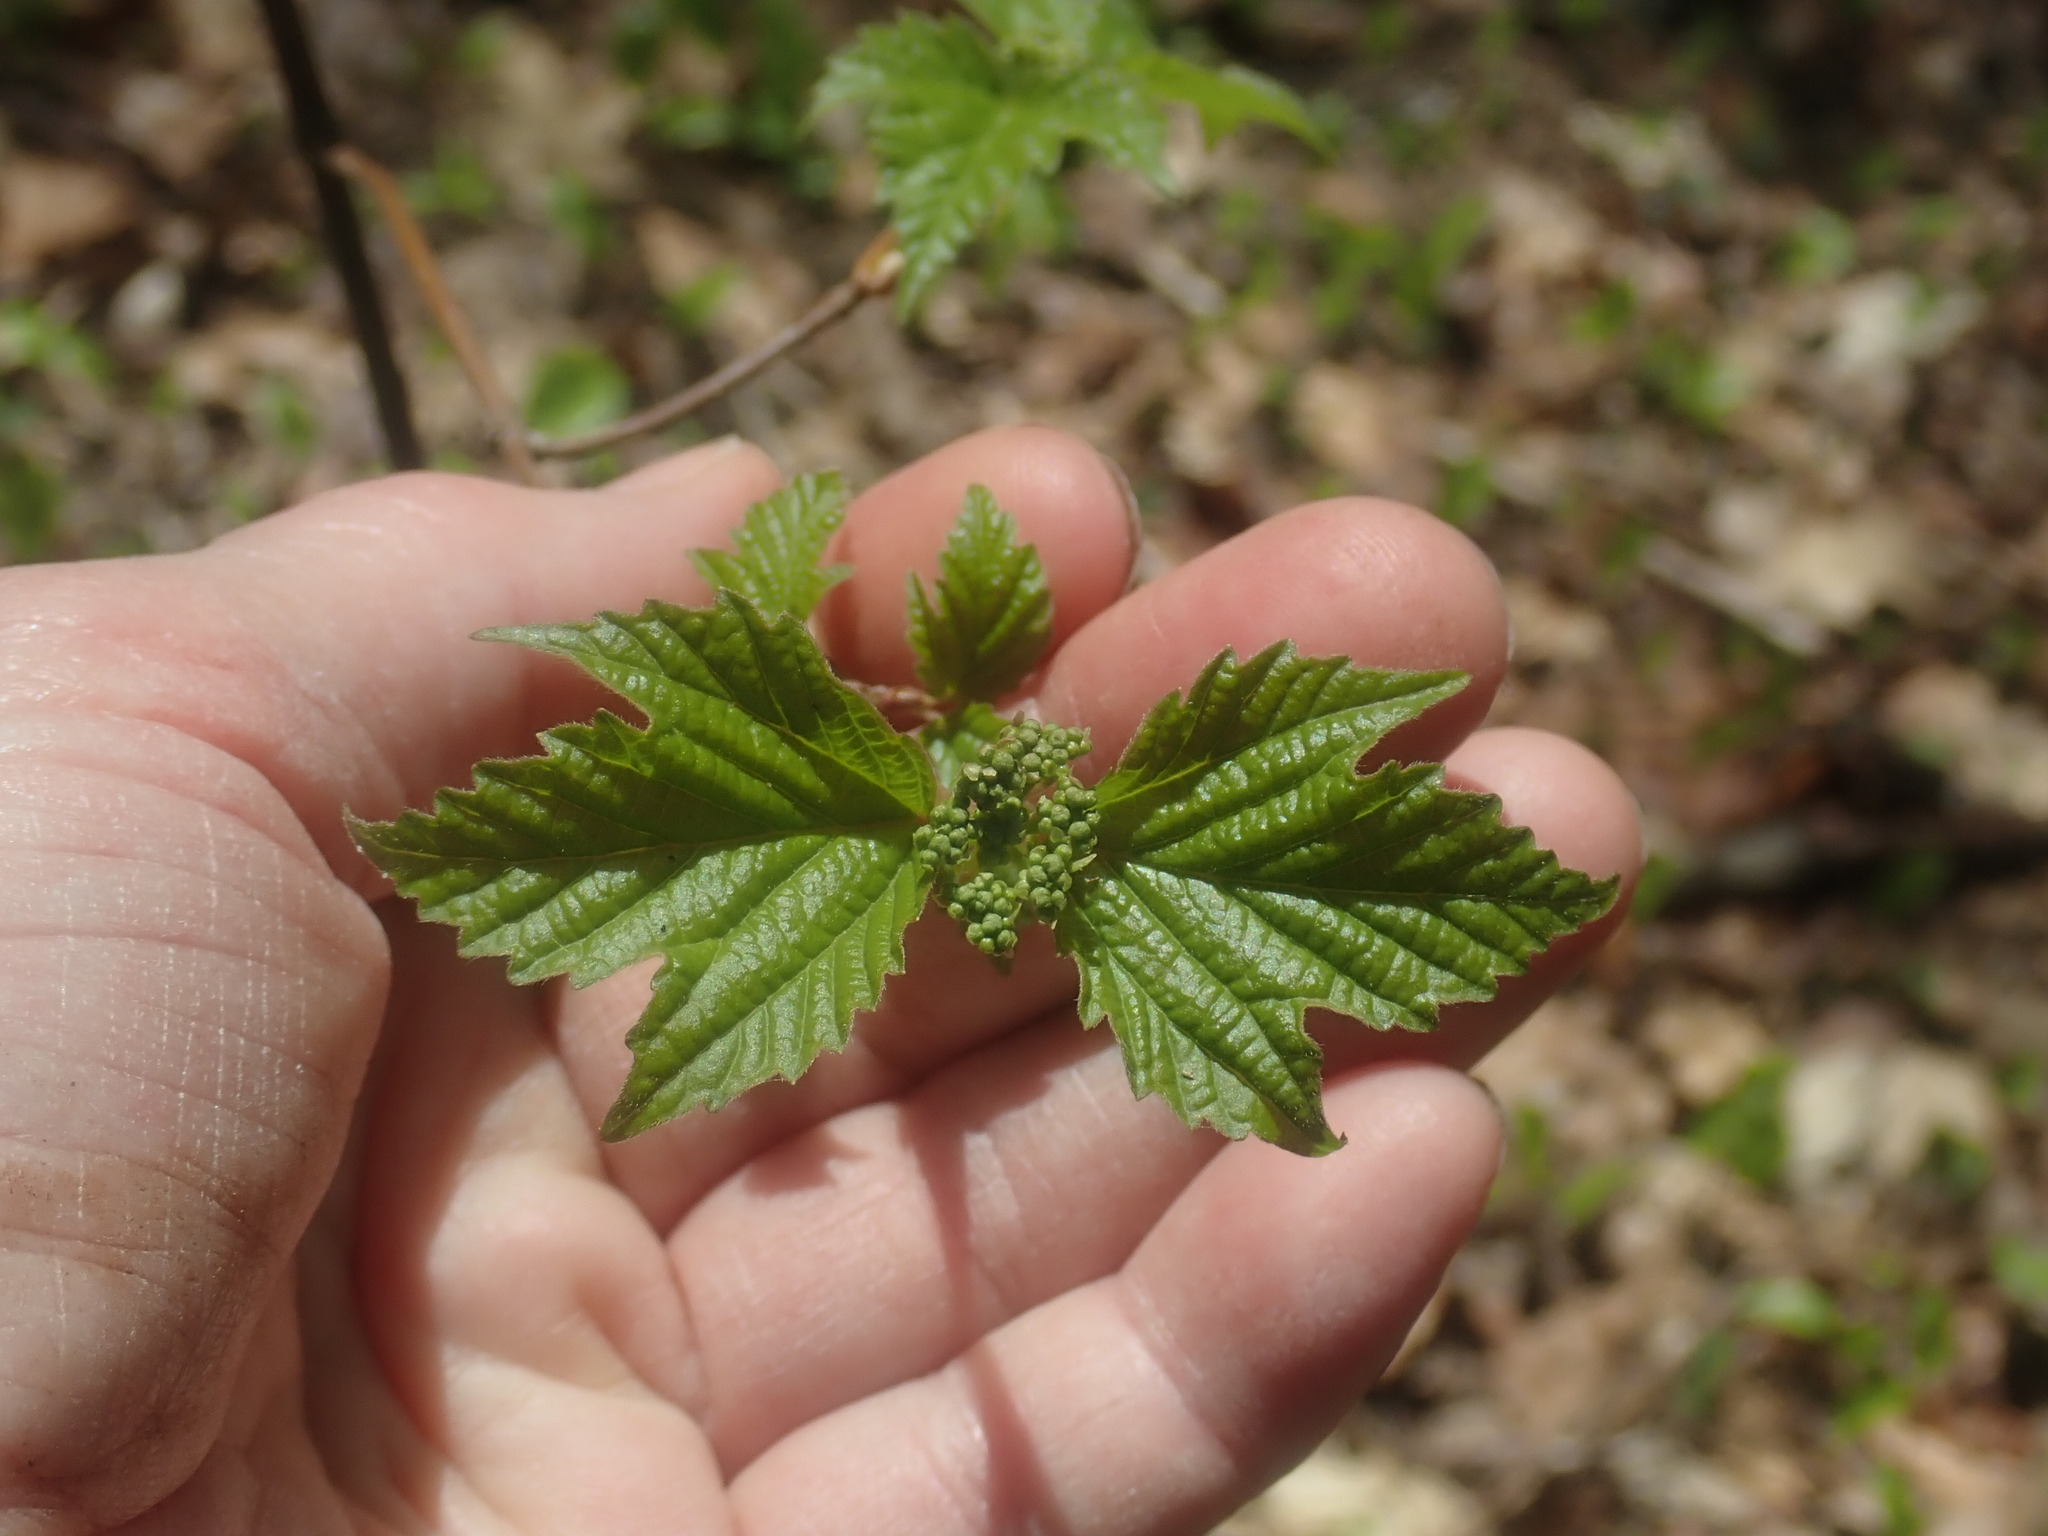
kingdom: Plantae
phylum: Tracheophyta
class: Magnoliopsida
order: Dipsacales
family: Viburnaceae
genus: Viburnum
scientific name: Viburnum acerifolium
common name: Dockmackie
